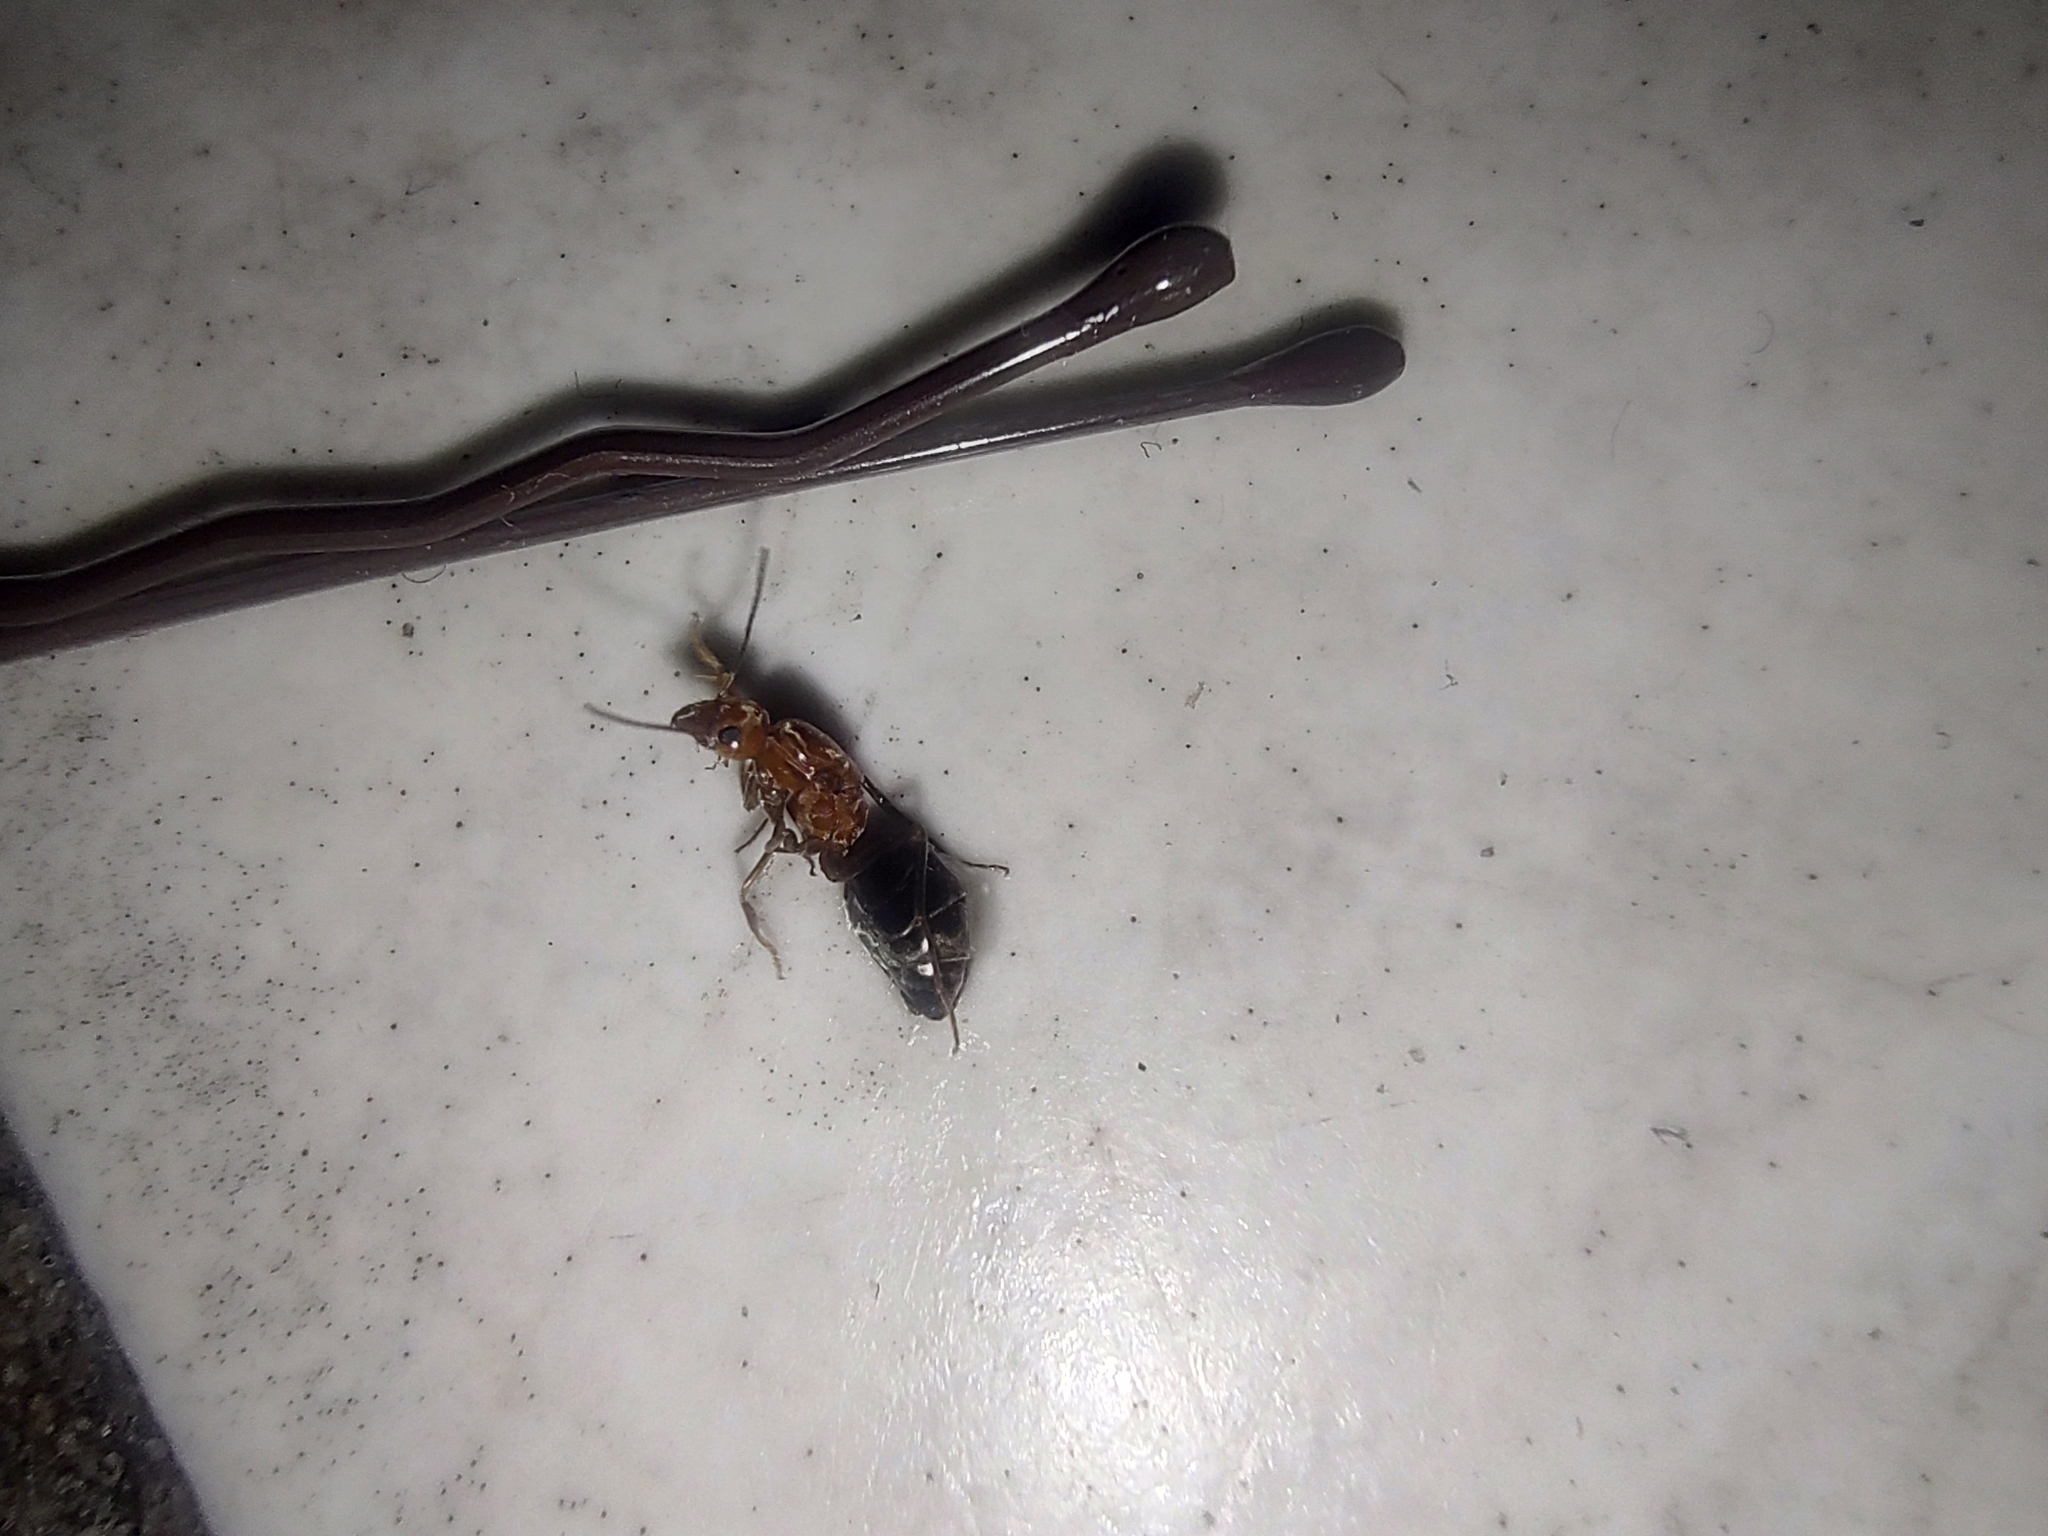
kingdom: Animalia
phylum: Arthropoda
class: Insecta
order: Hymenoptera
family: Formicidae
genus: Dorymyrmex
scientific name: Dorymyrmex bicolor
